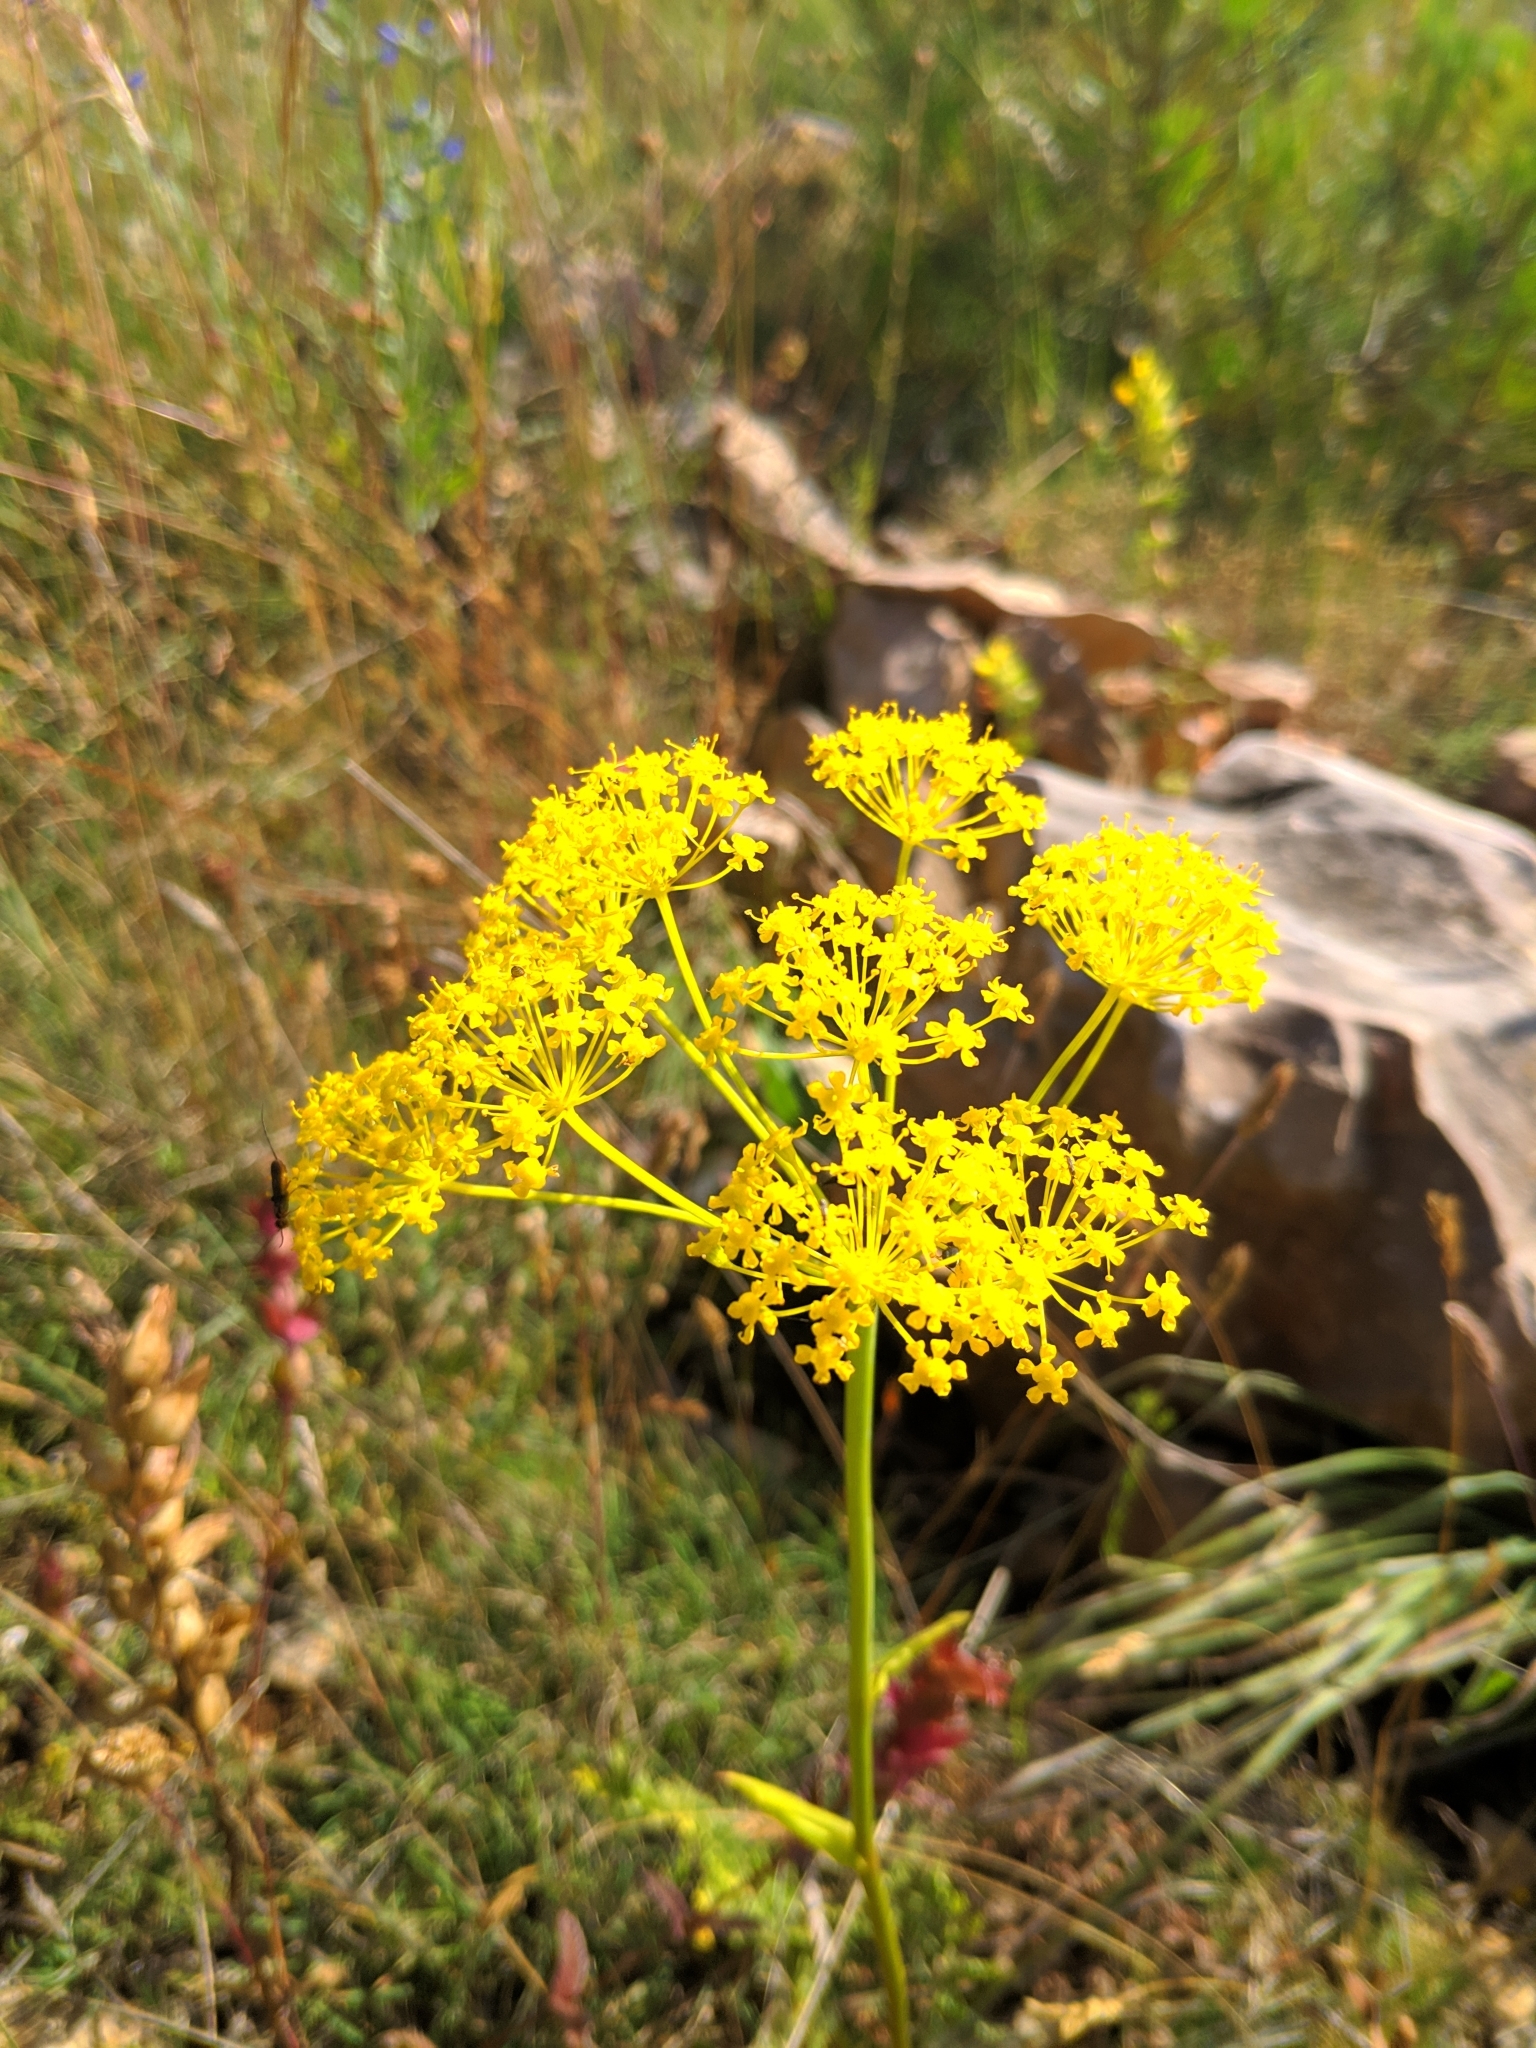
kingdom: Plantae
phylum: Tracheophyta
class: Magnoliopsida
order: Apiales
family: Apiaceae
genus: Thapsia
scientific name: Thapsia villosa
